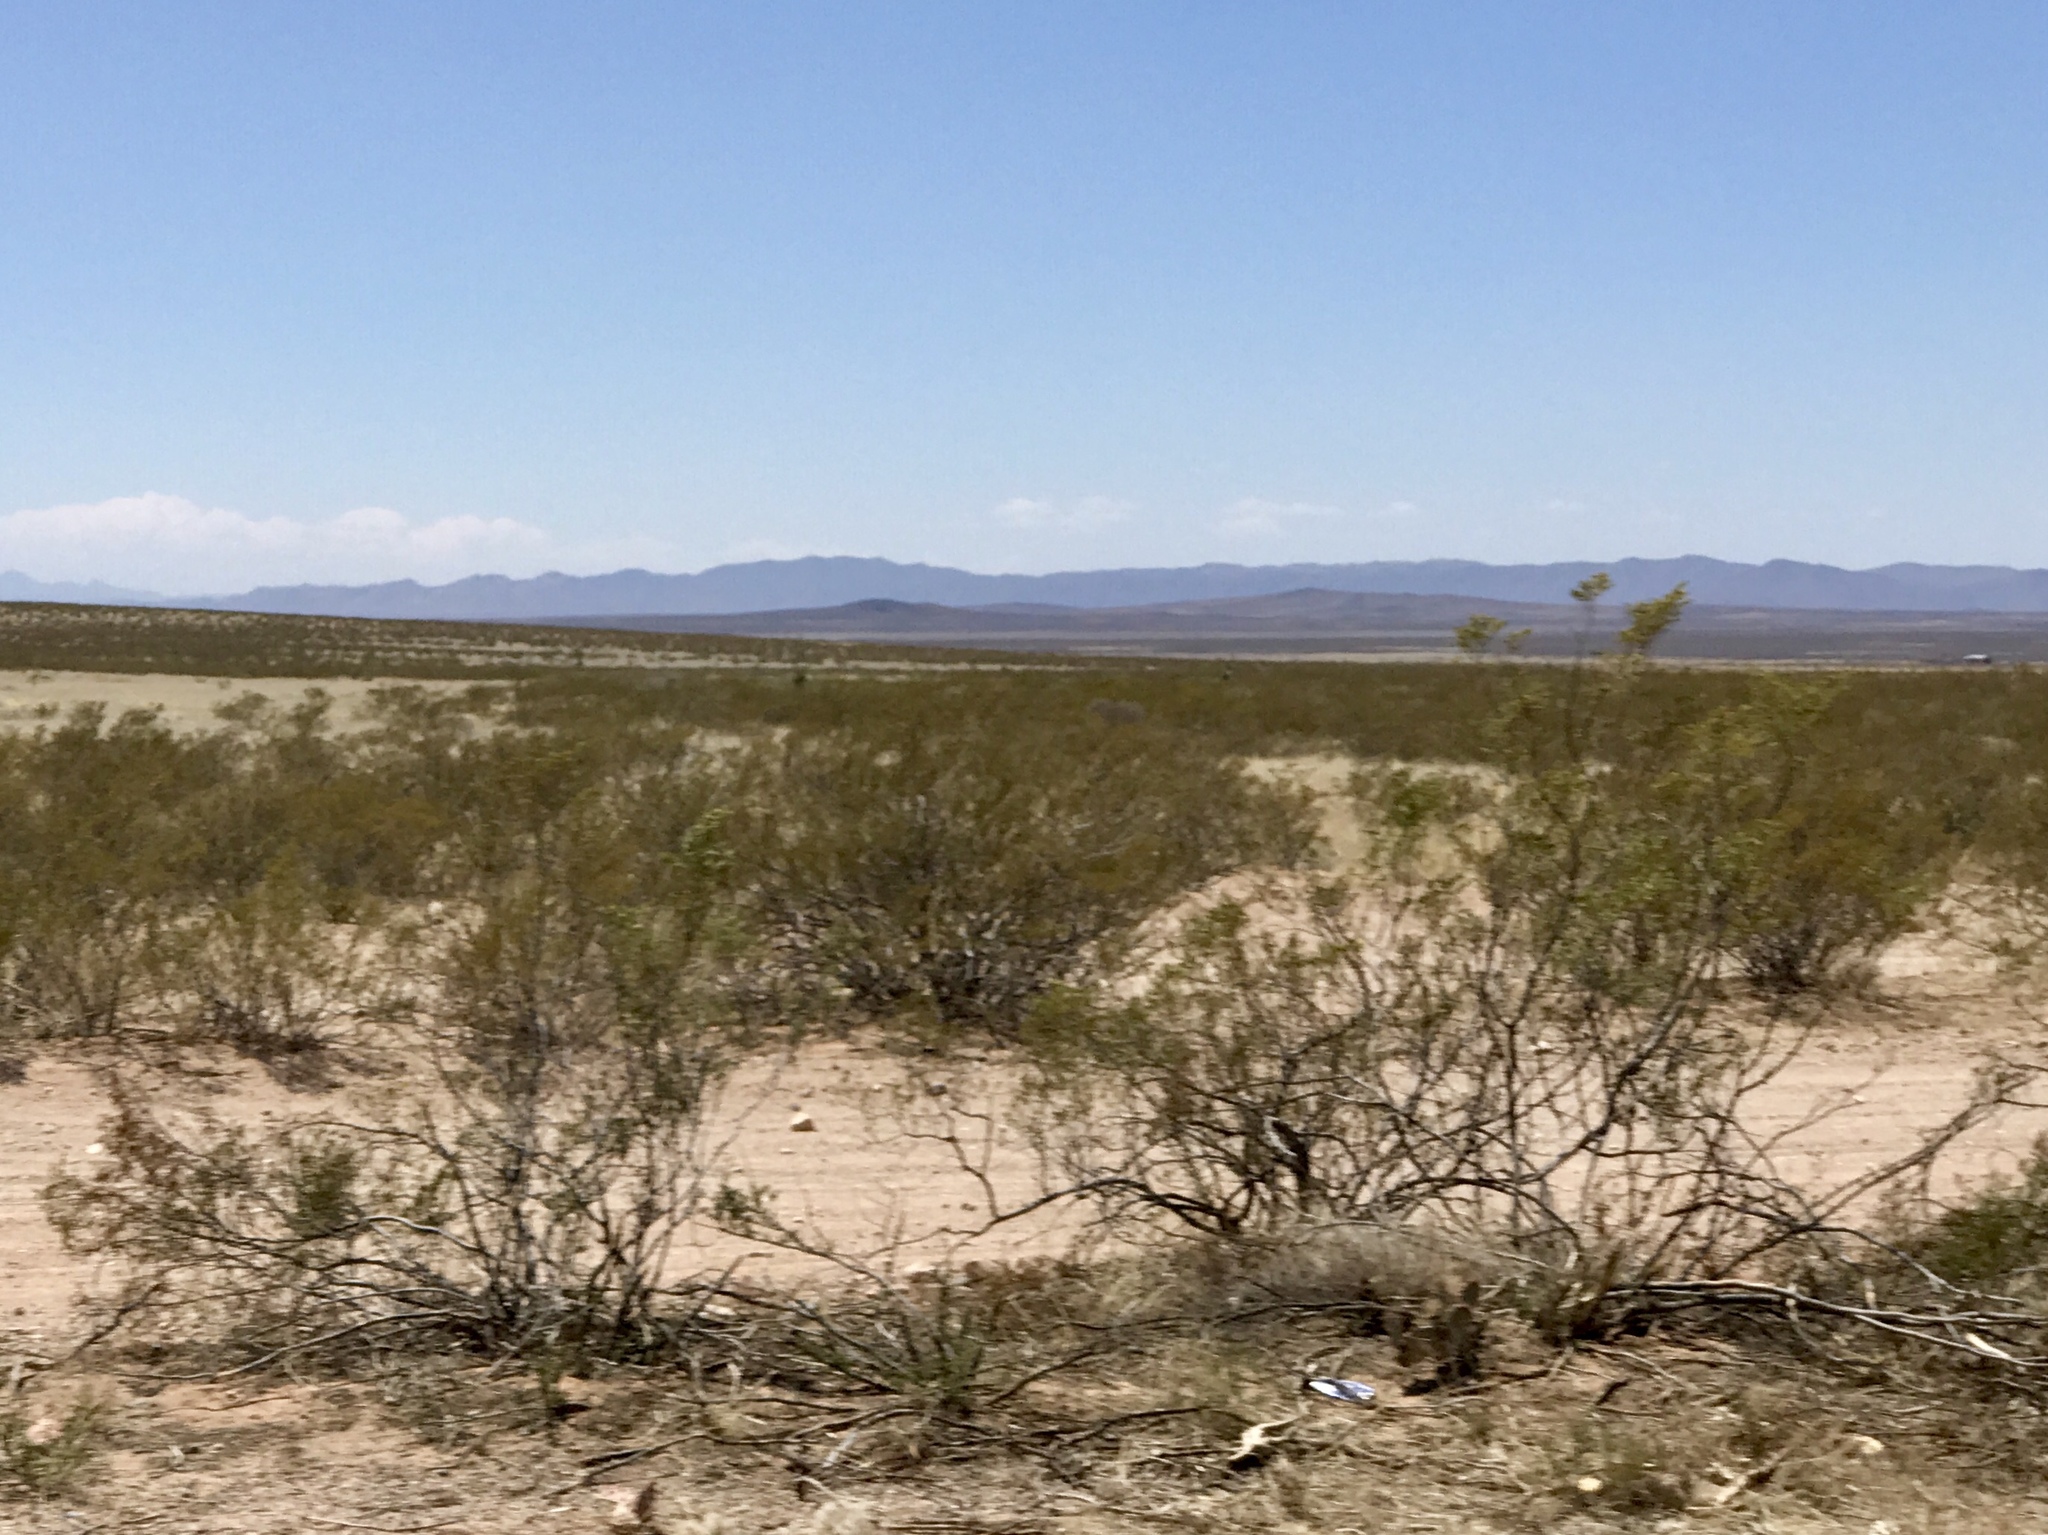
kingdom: Plantae
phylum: Tracheophyta
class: Magnoliopsida
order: Zygophyllales
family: Zygophyllaceae
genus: Larrea
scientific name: Larrea tridentata
